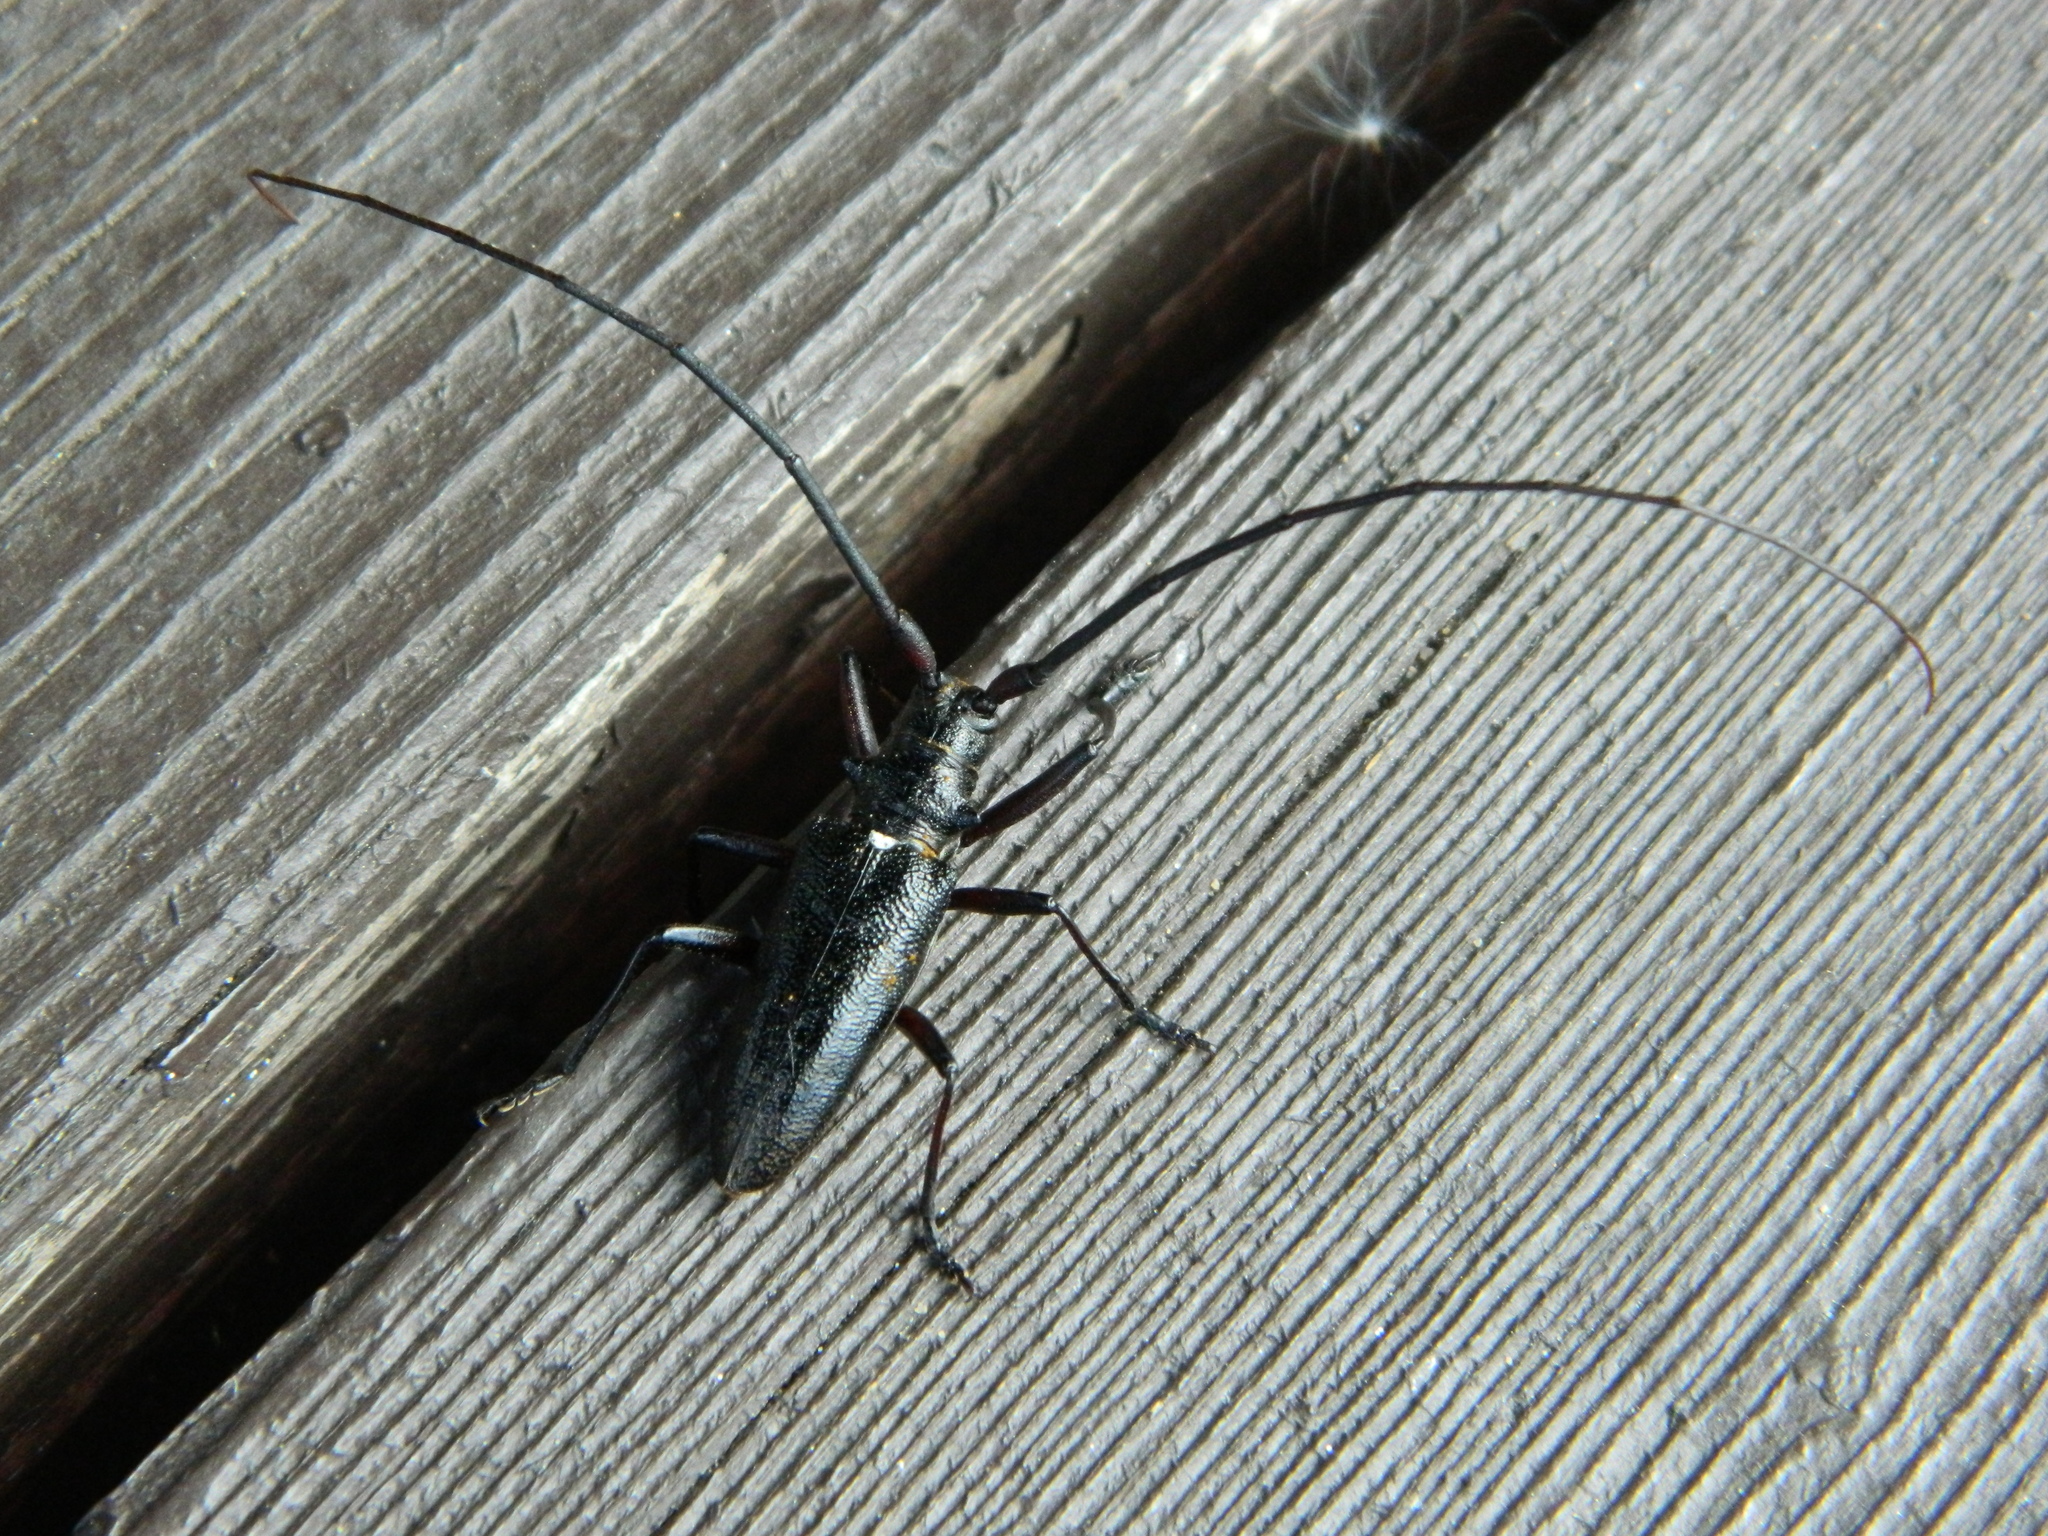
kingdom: Animalia
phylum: Arthropoda
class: Insecta
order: Coleoptera
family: Cerambycidae
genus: Monochamus
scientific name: Monochamus scutellatus
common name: White-spotted sawyer beetle
